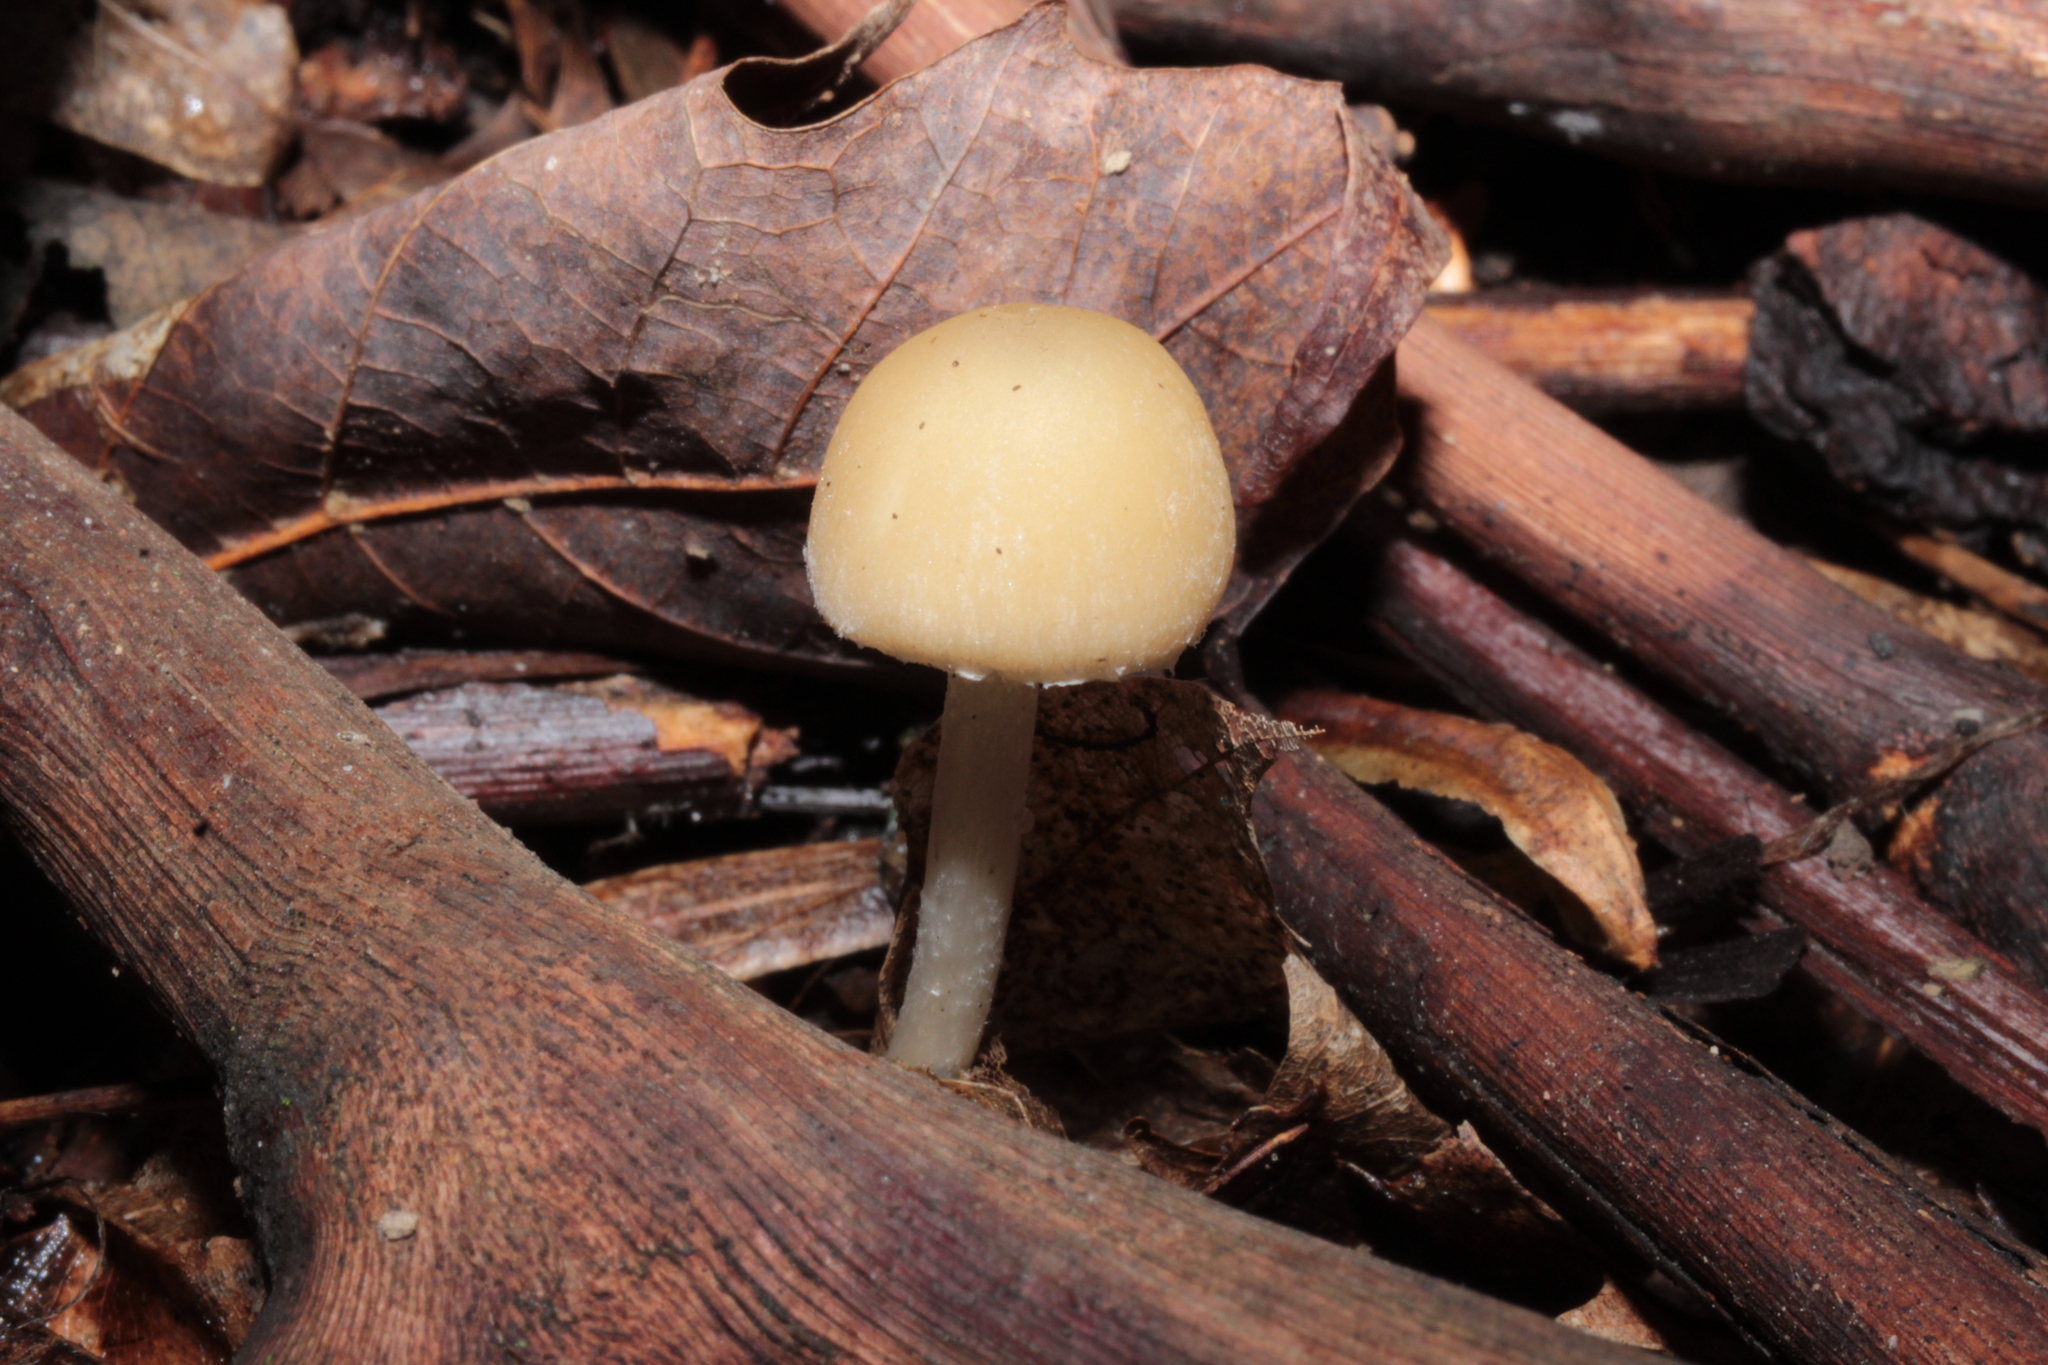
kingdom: Fungi
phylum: Basidiomycota
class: Agaricomycetes
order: Agaricales
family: Psathyrellaceae
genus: Candolleomyces
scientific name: Candolleomyces candolleanus
